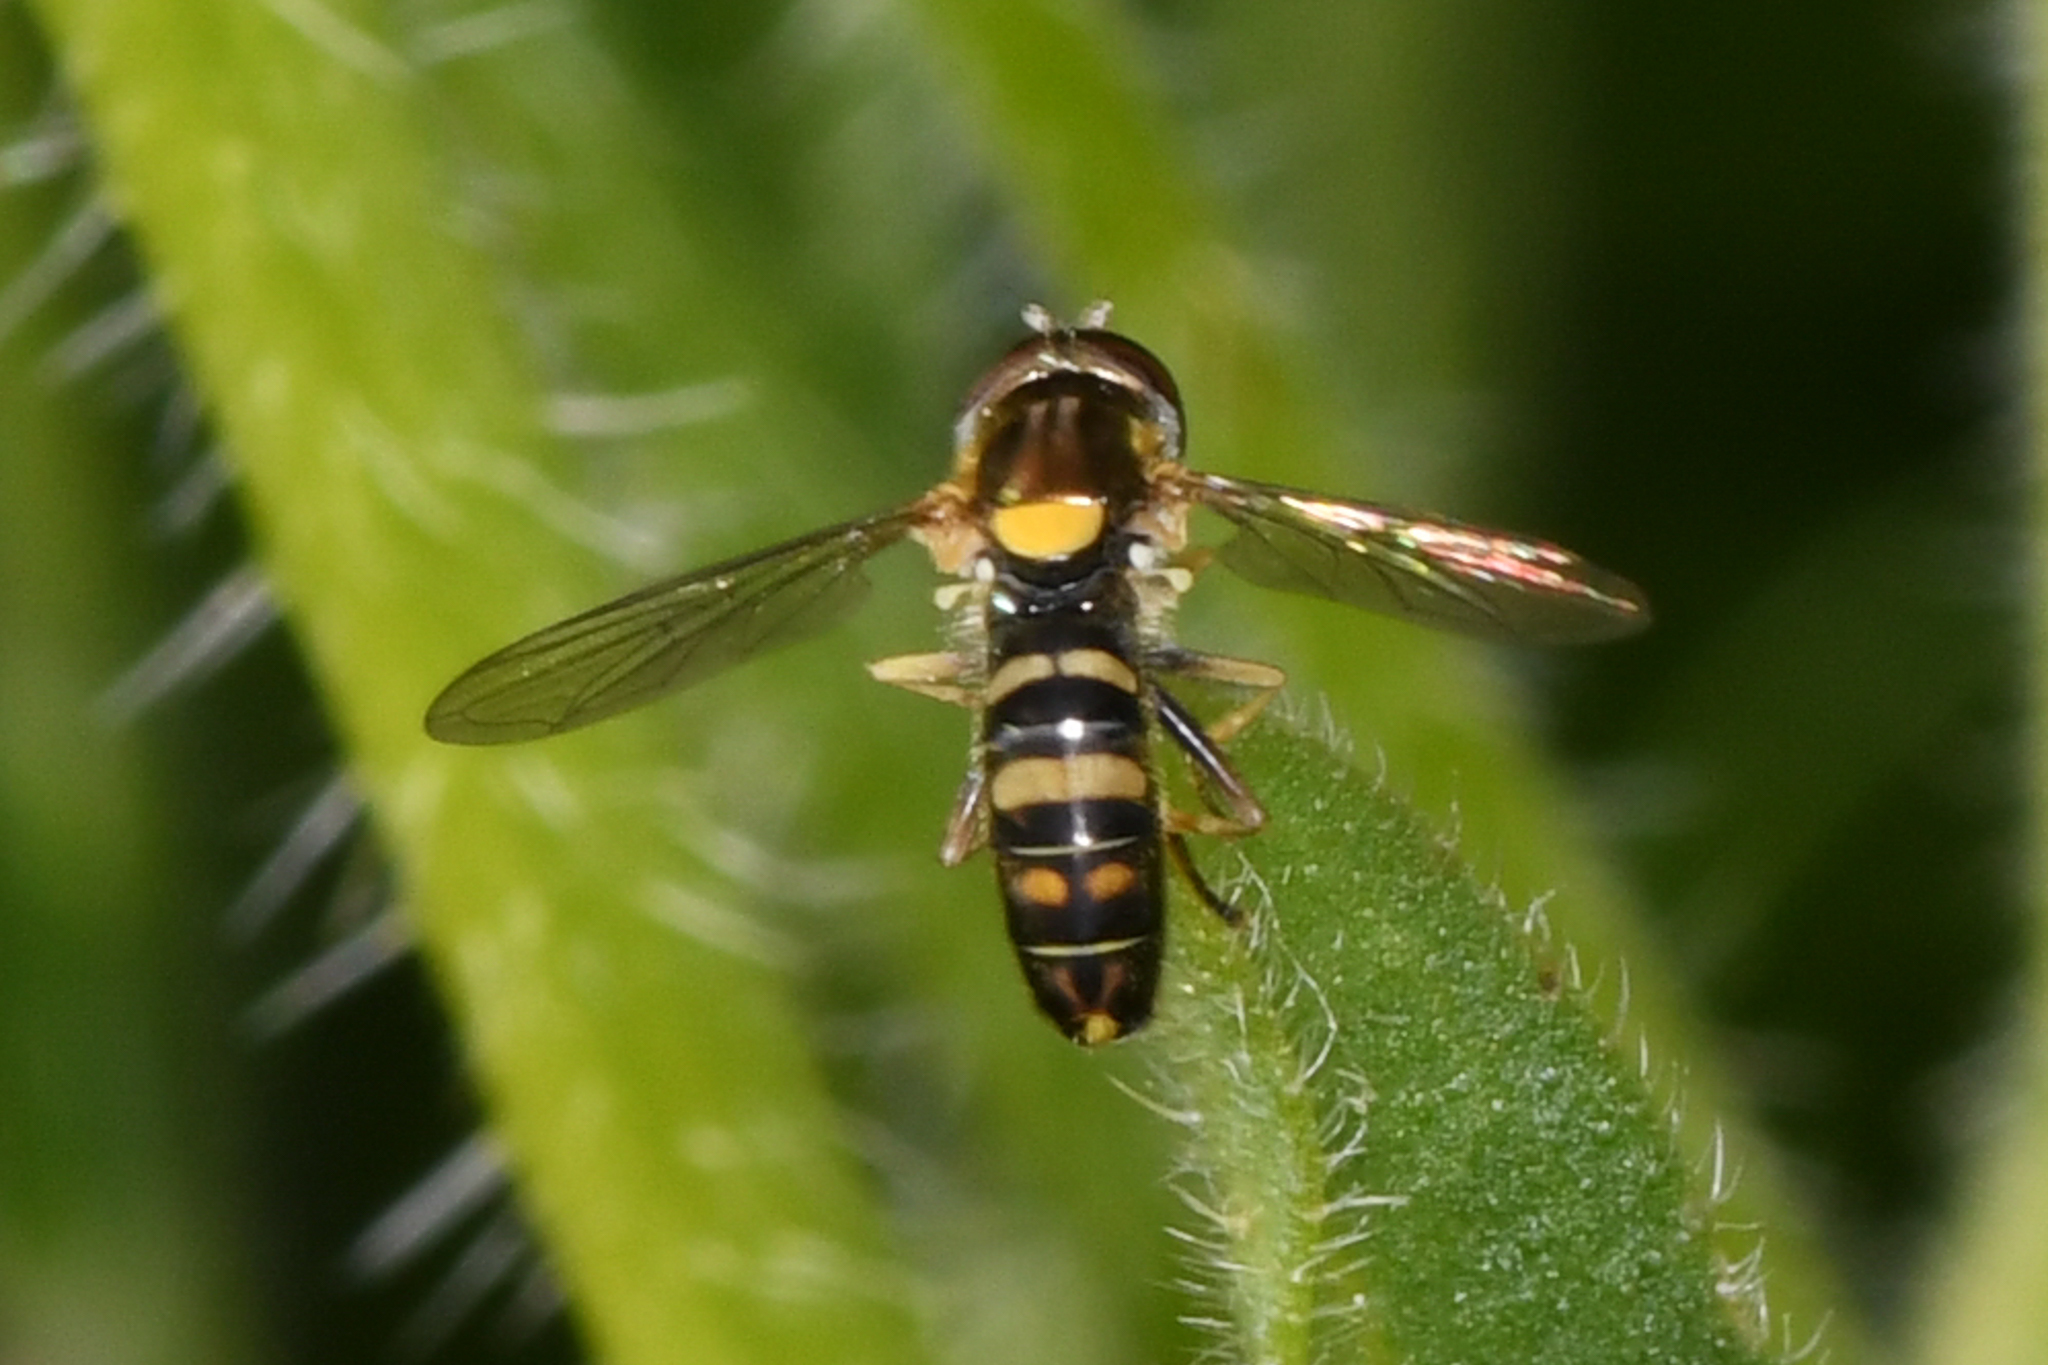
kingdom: Animalia
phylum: Arthropoda
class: Insecta
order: Diptera
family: Syrphidae
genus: Sphaerophoria
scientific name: Sphaerophoria sulphuripes
